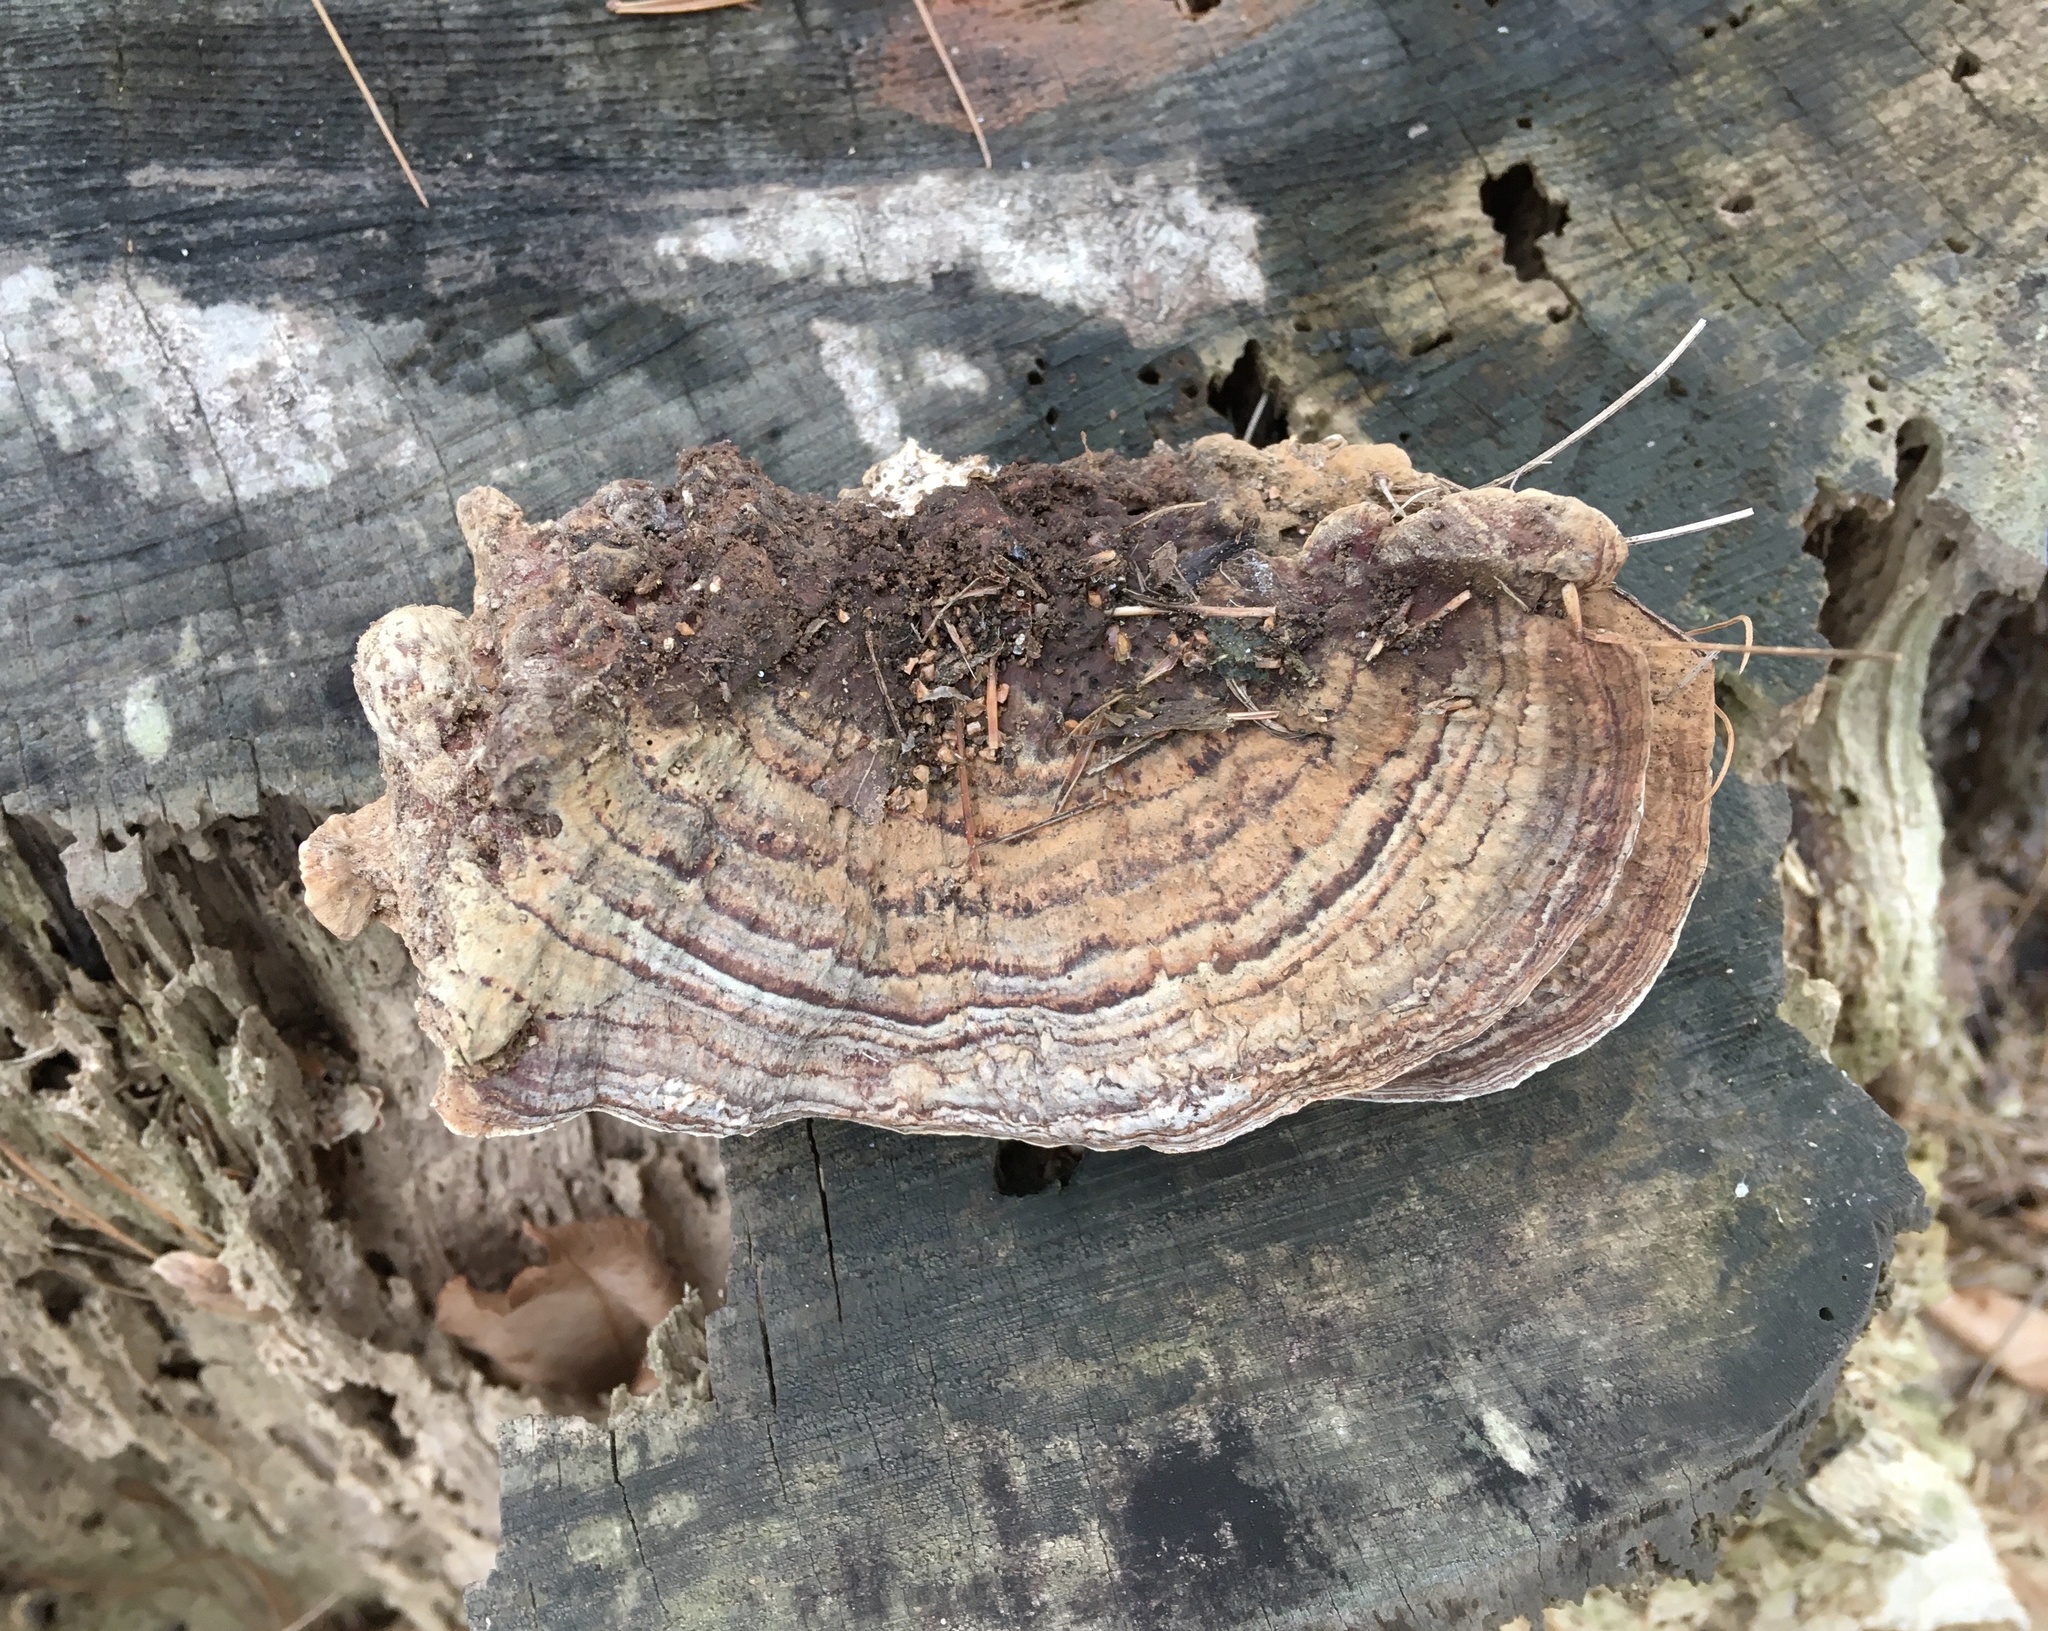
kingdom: Fungi
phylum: Basidiomycota
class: Agaricomycetes
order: Russulales
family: Bondarzewiaceae
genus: Heterobasidion
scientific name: Heterobasidion irregulare
